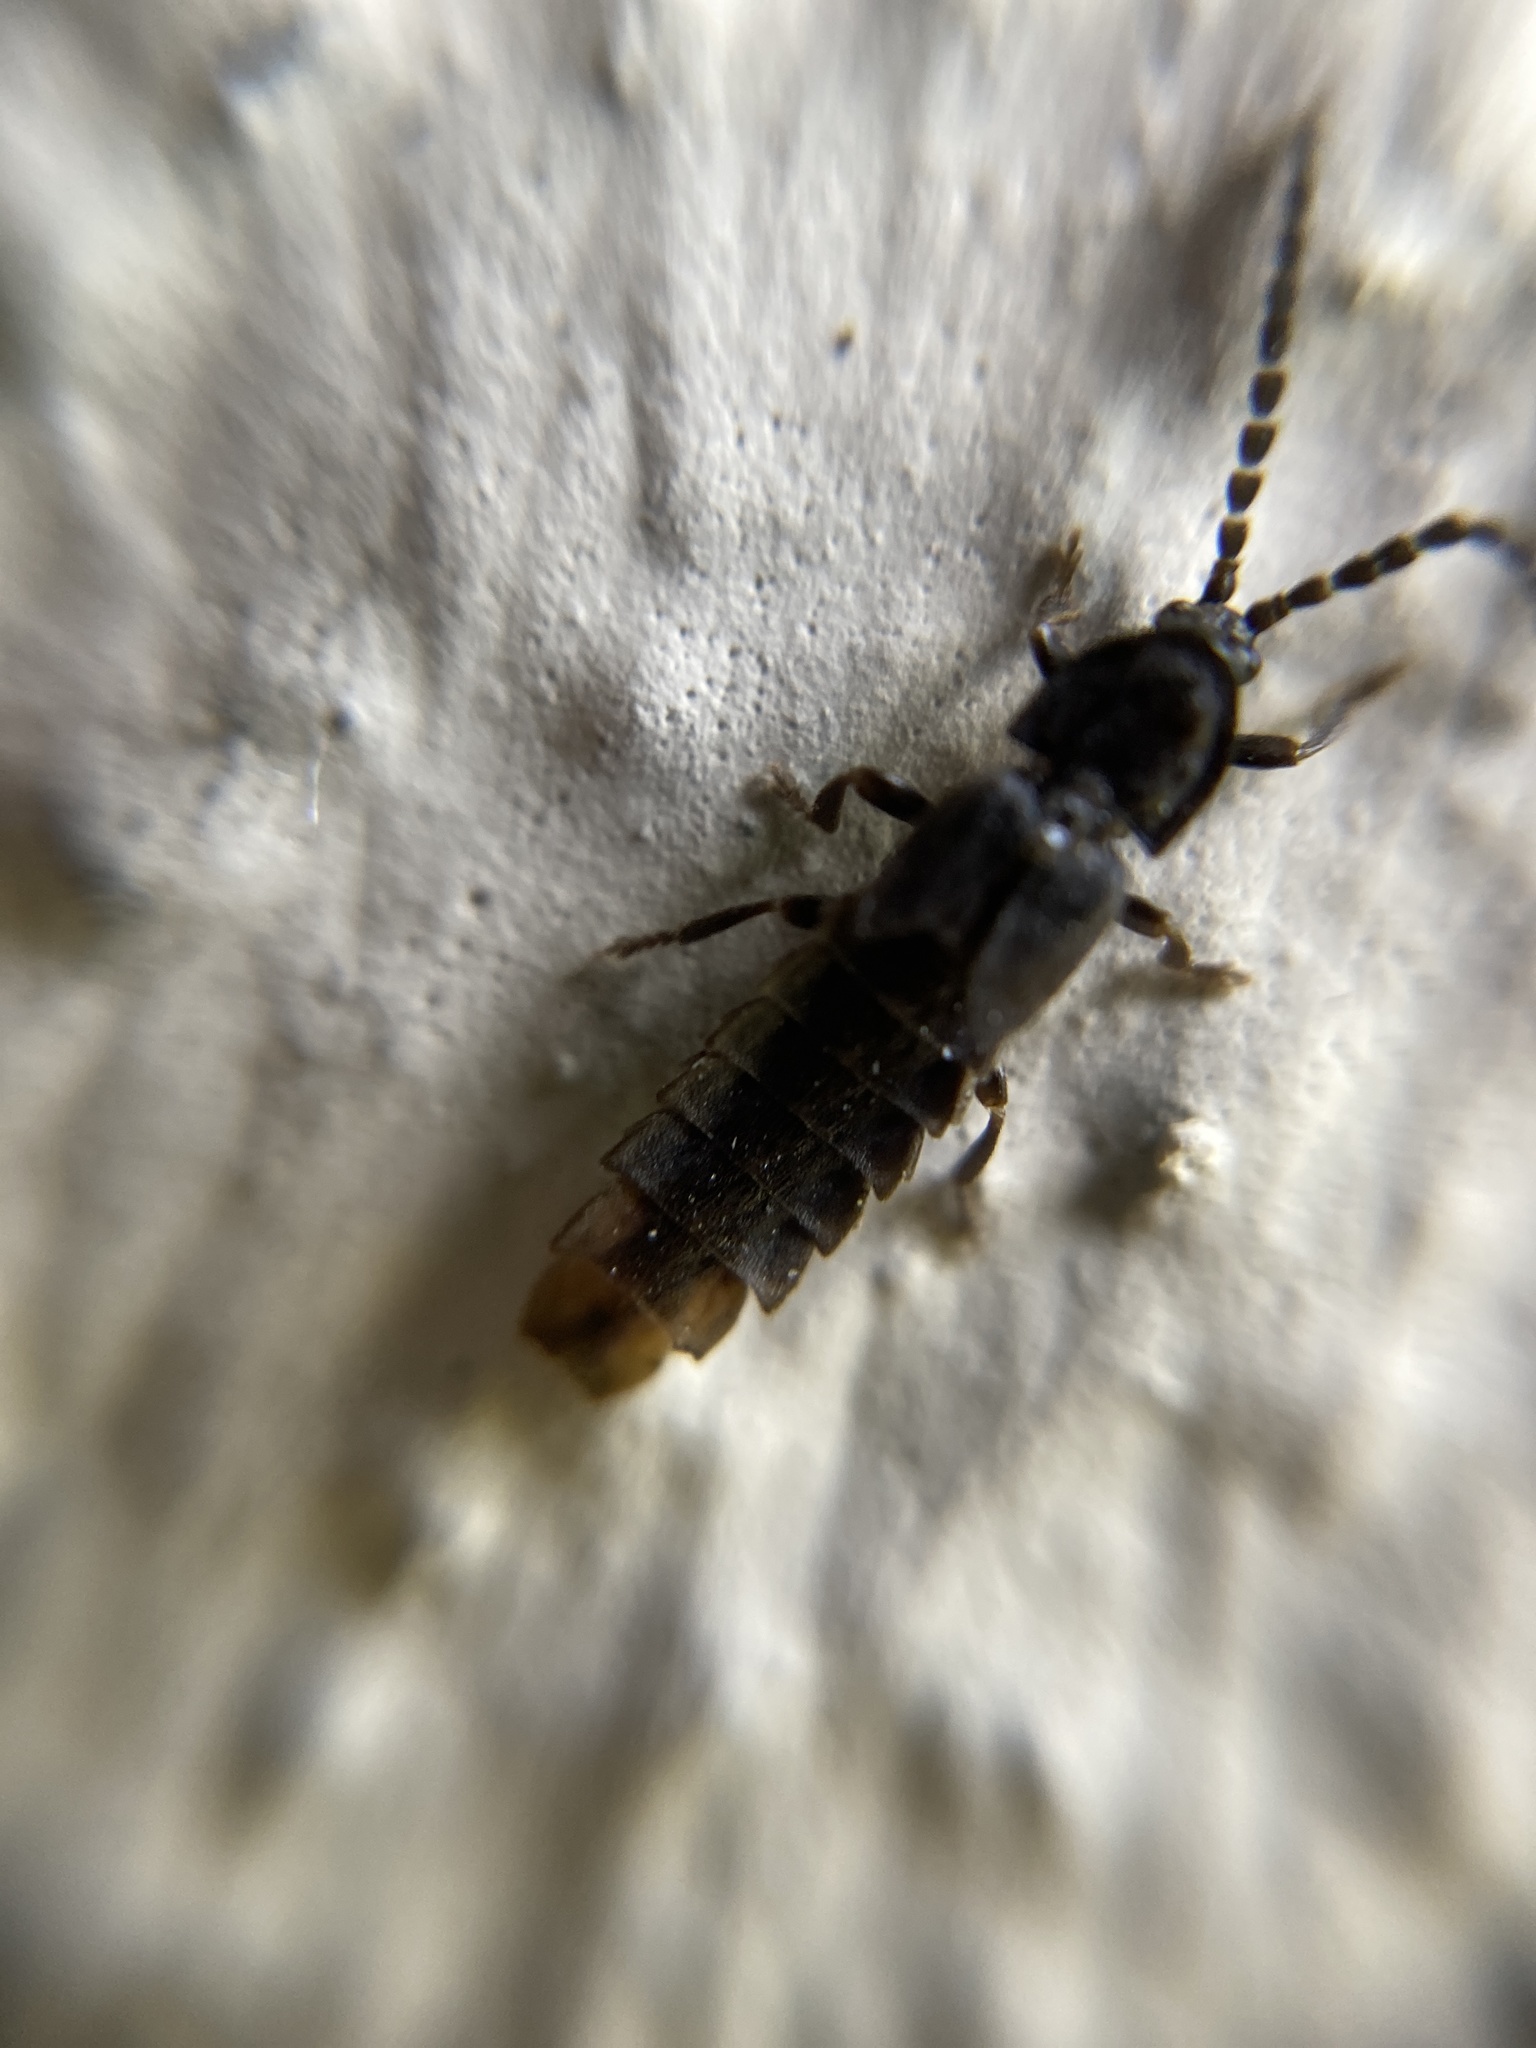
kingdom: Animalia
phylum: Arthropoda
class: Insecta
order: Coleoptera
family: Lampyridae
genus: Phosphaenus
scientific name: Phosphaenus hemipterus
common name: Short-winged firefly
